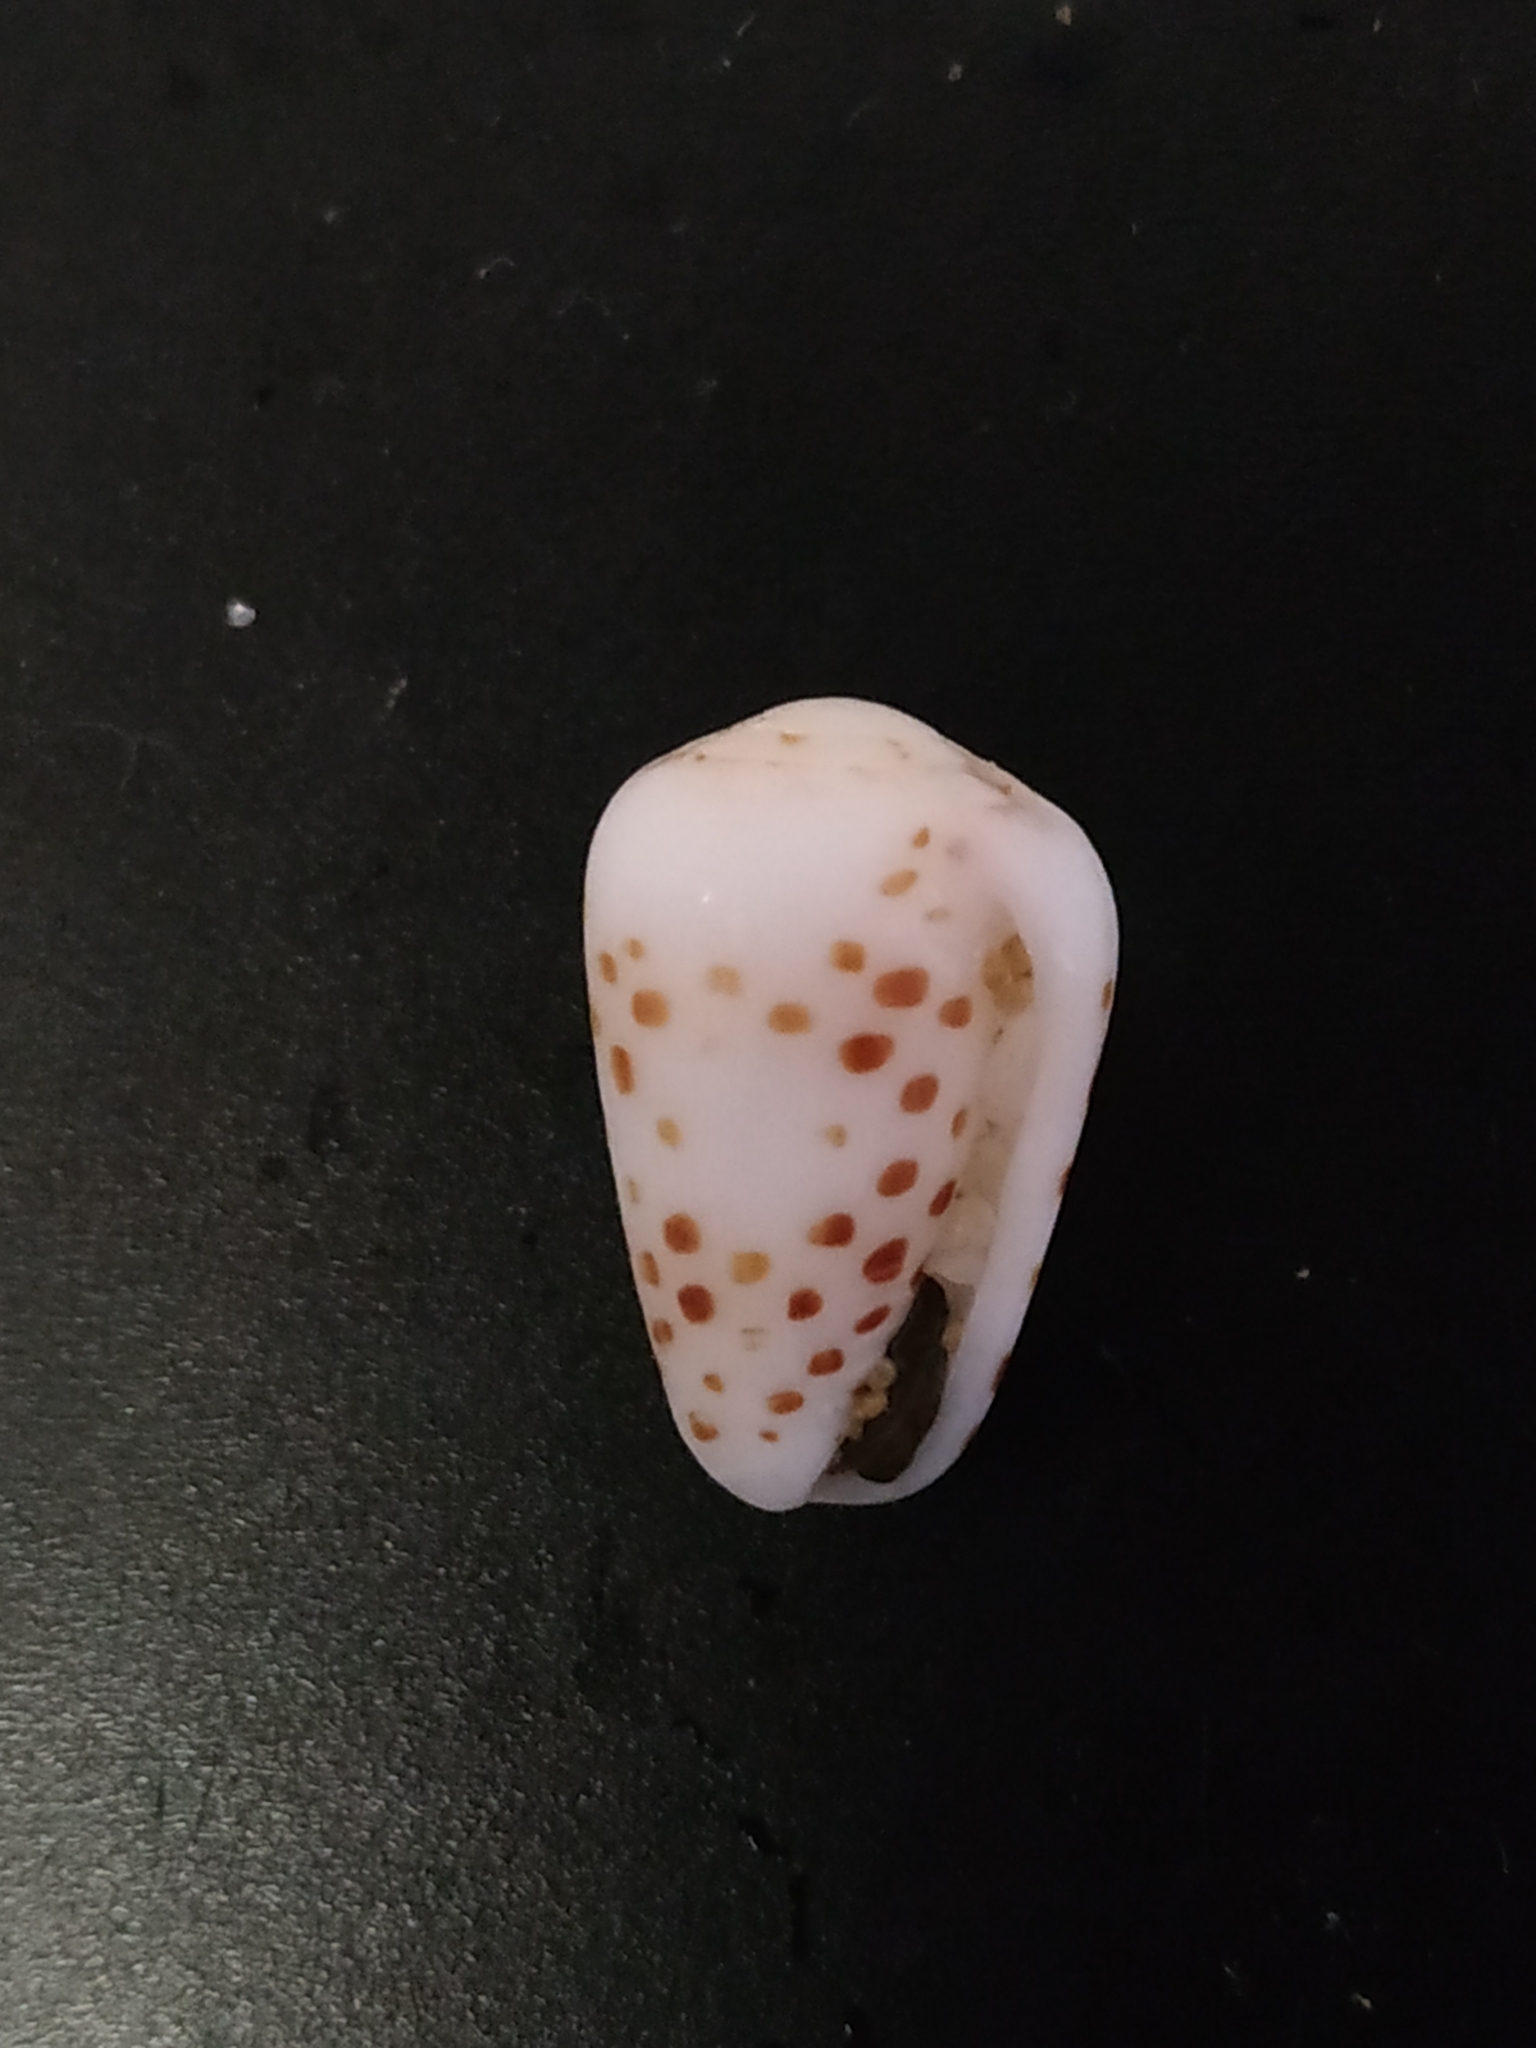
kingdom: Animalia
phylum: Mollusca
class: Gastropoda
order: Neogastropoda
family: Conidae
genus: Conus
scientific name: Conus pulicarius
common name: Flea-bite cone
